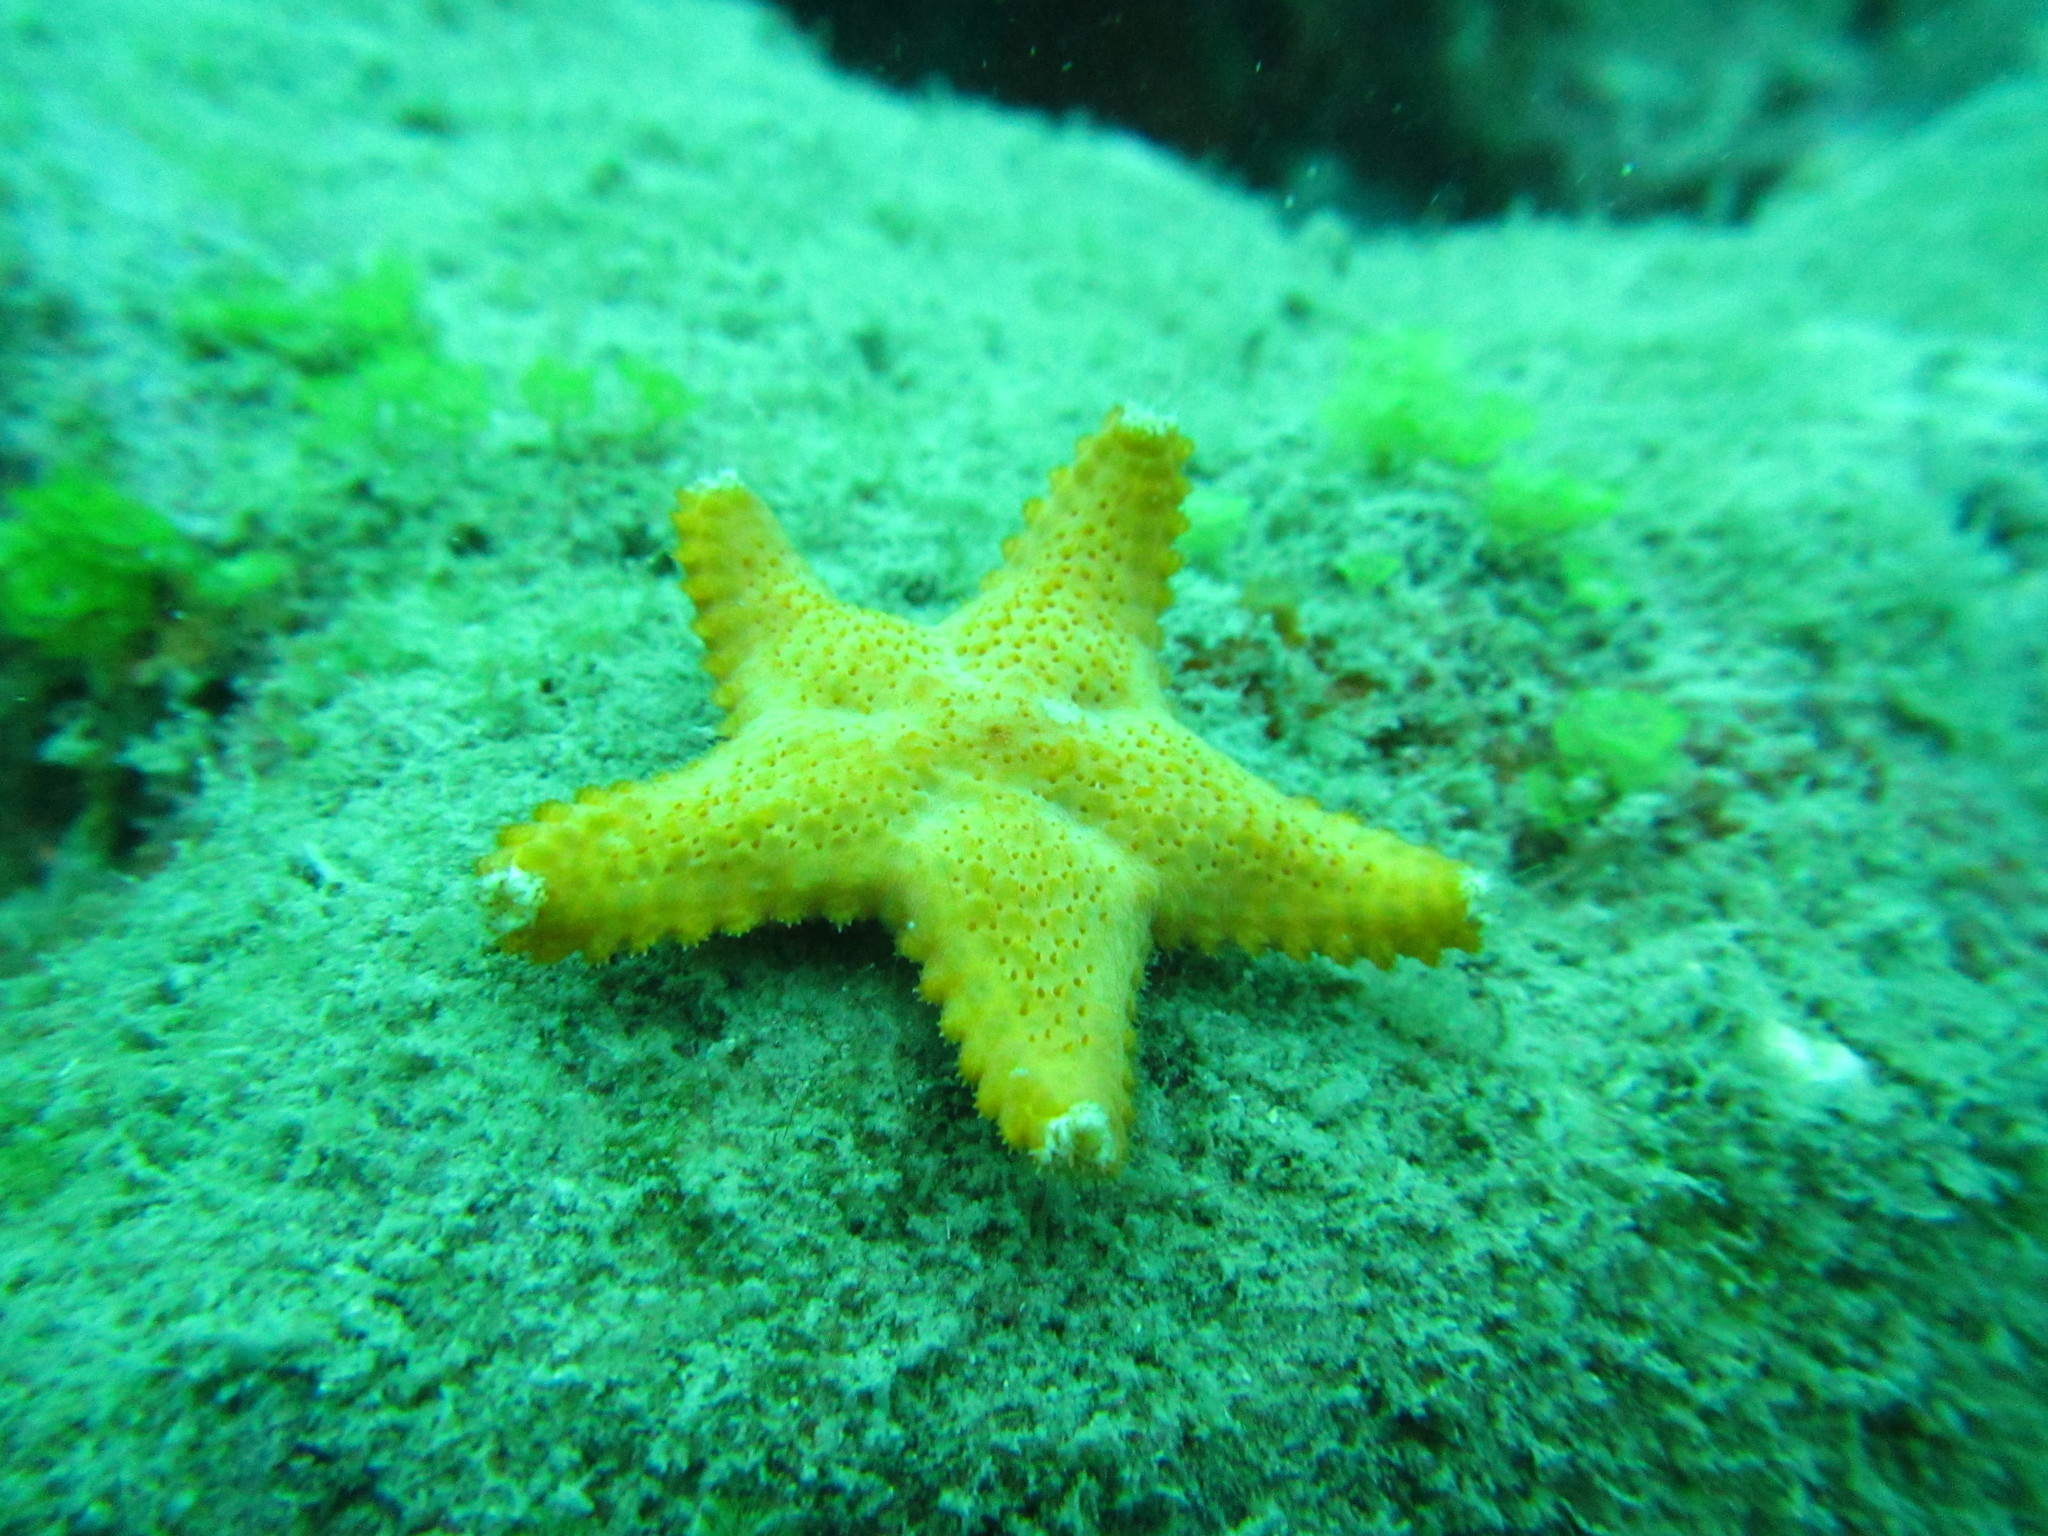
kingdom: Animalia
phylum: Echinodermata
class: Asteroidea
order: Valvatida
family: Asteropseidae
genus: Poraniella
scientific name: Poraniella echinulata
